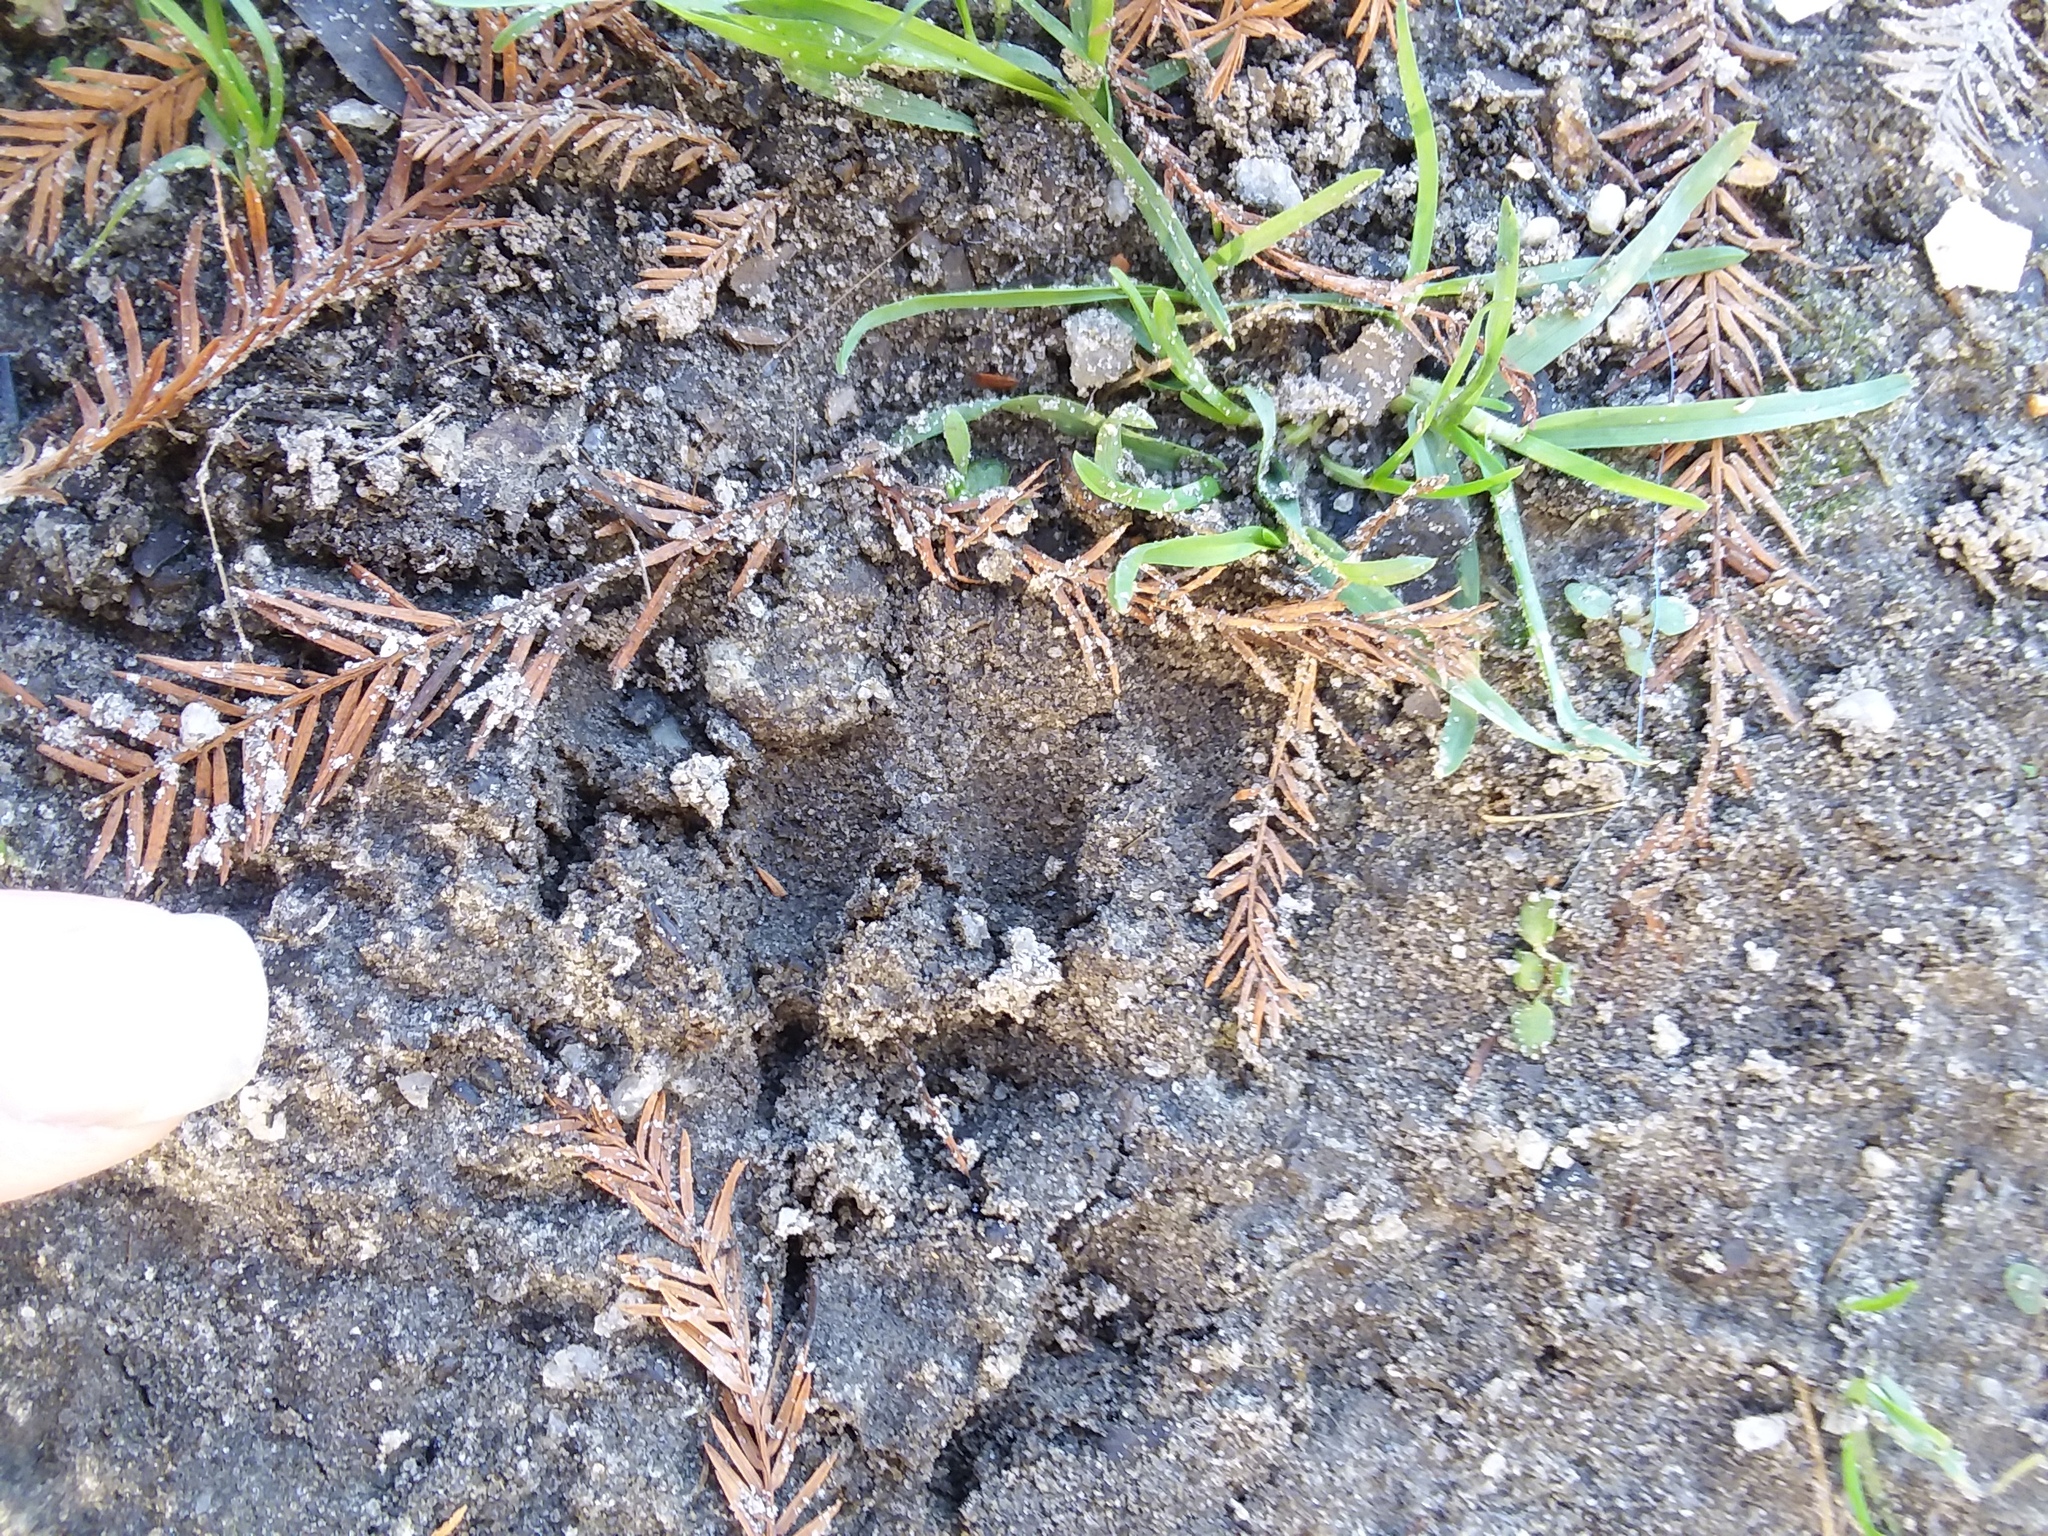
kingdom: Animalia
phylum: Chordata
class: Mammalia
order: Carnivora
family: Procyonidae
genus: Procyon
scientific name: Procyon lotor
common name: Raccoon
